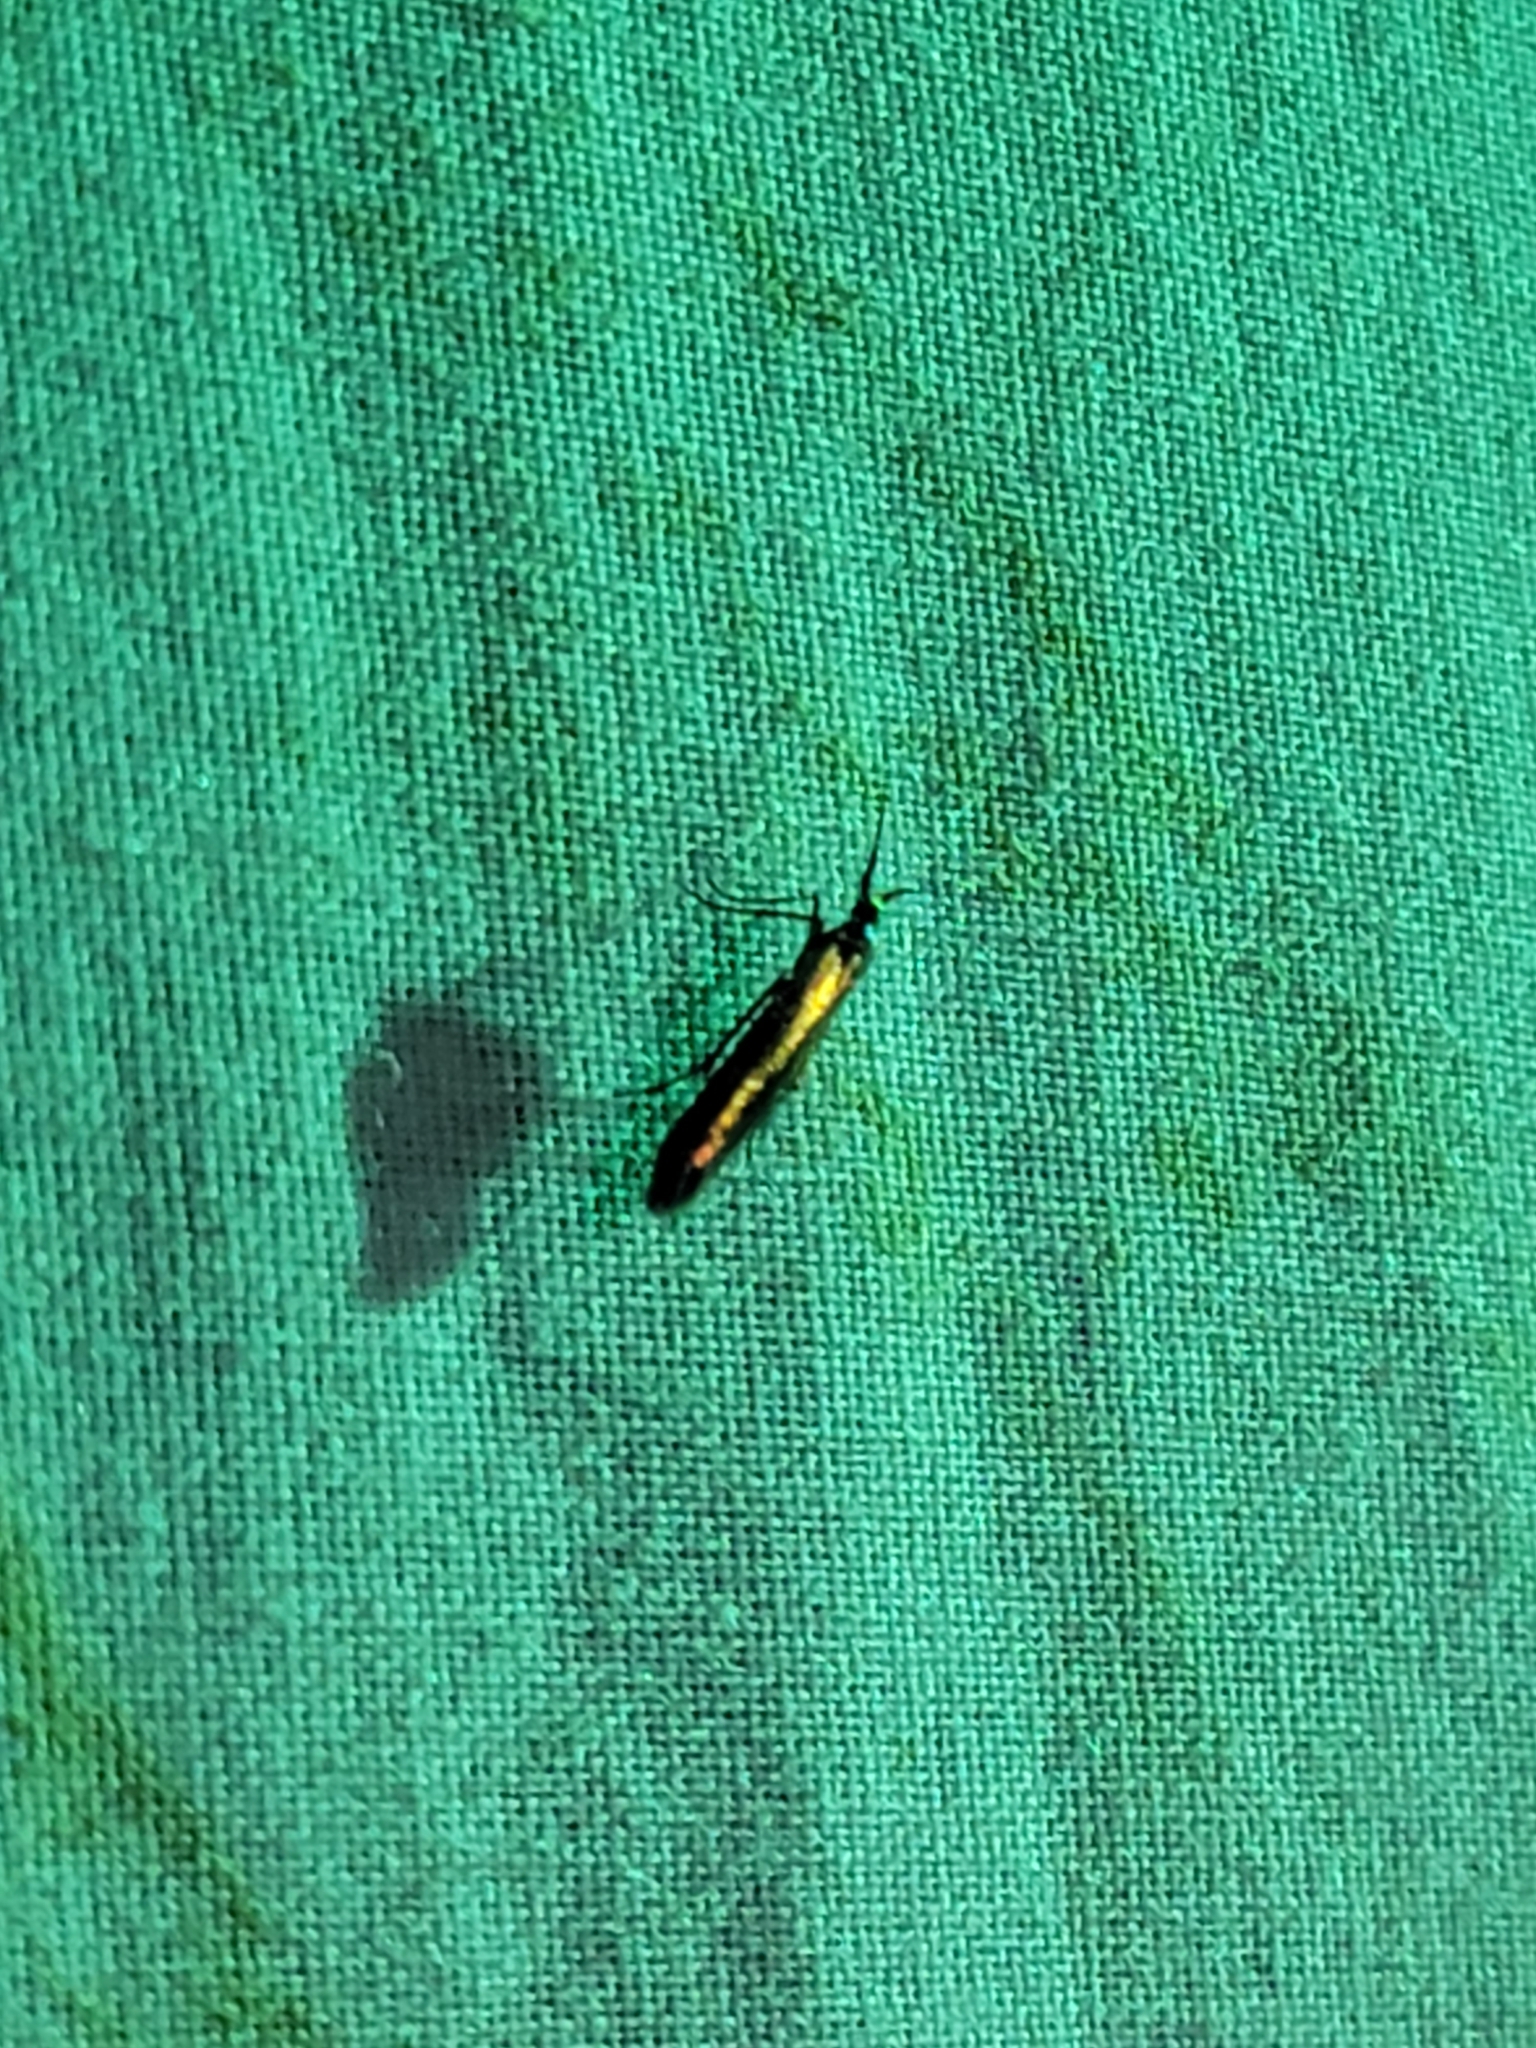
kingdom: Animalia
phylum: Arthropoda
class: Insecta
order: Lepidoptera
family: Coleophoridae
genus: Coleophora
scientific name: Coleophora mayrella
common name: Meadow case-bearer
